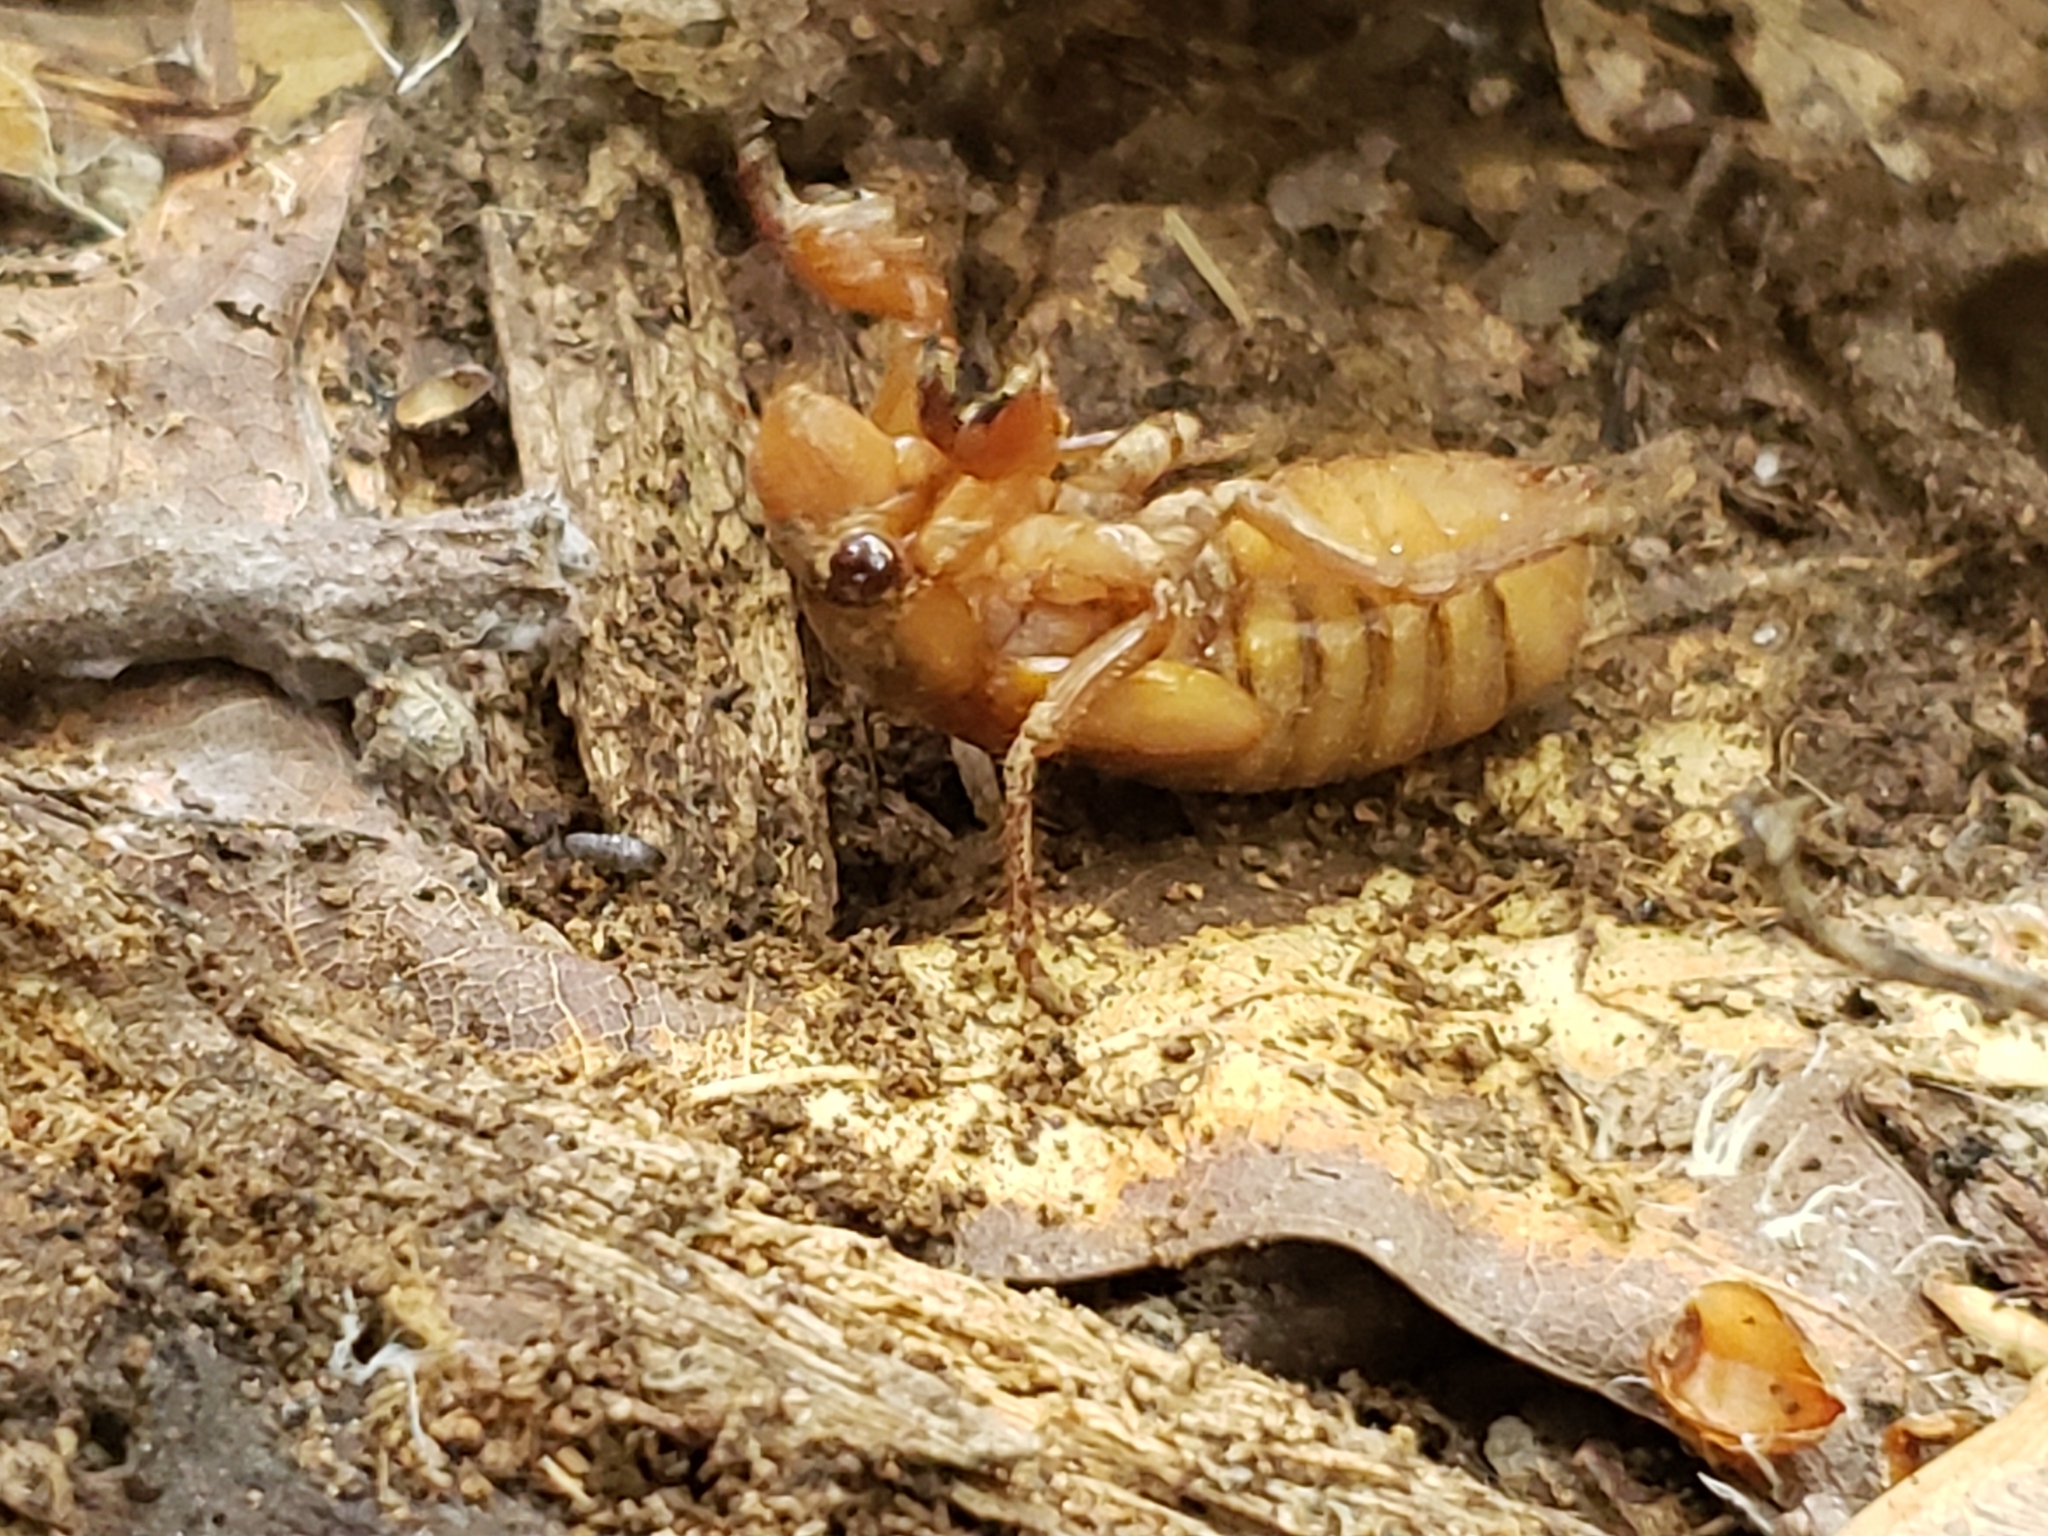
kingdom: Animalia
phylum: Arthropoda
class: Insecta
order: Hemiptera
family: Cicadidae
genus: Magicicada
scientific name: Magicicada
